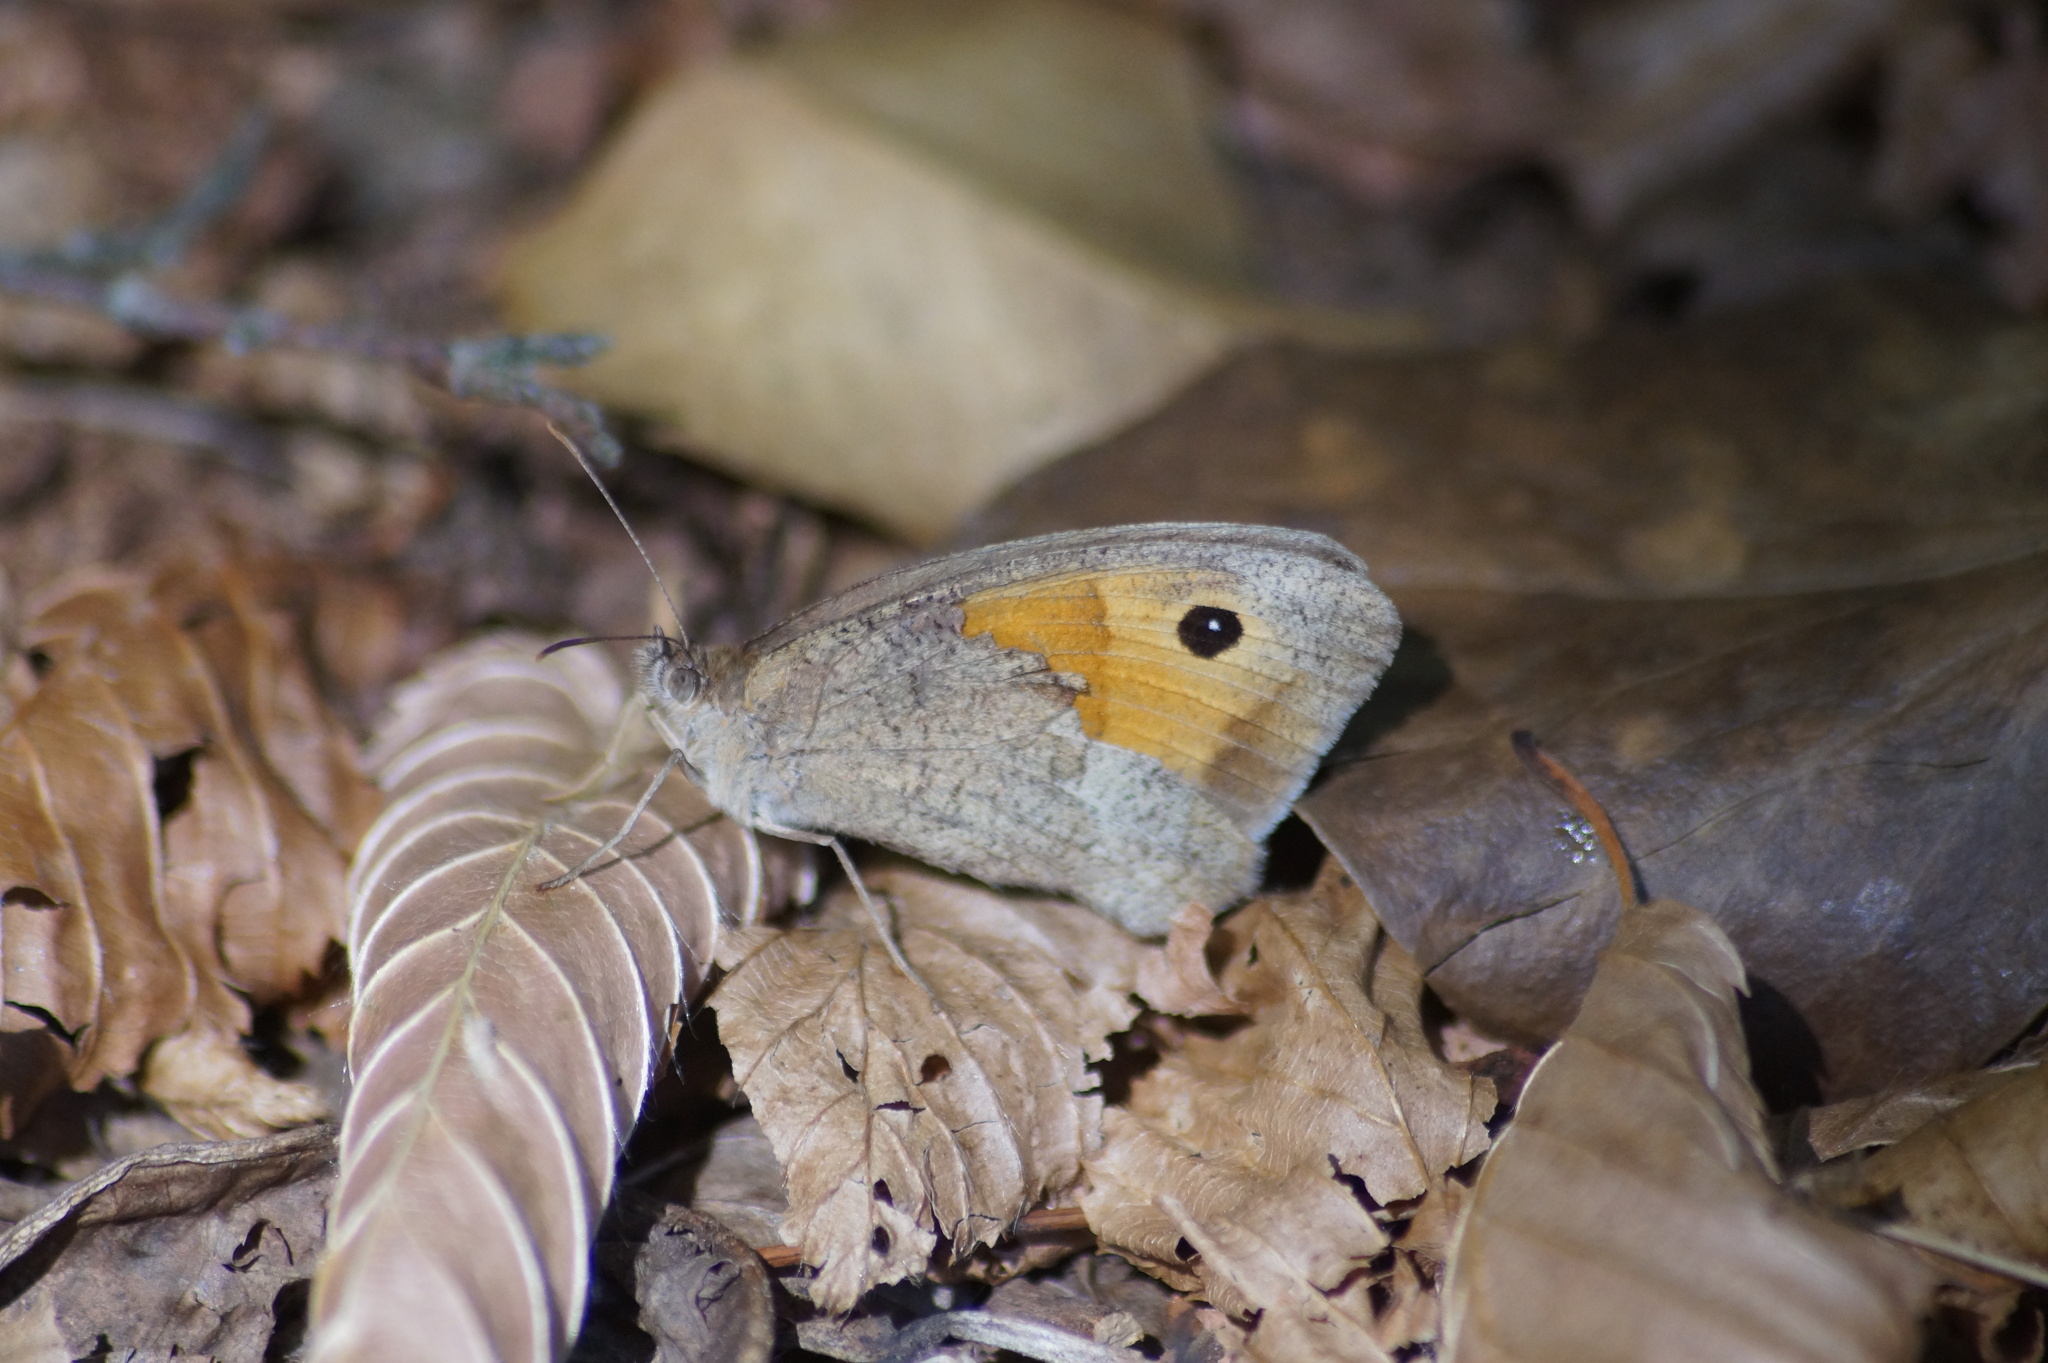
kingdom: Animalia
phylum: Arthropoda
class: Insecta
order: Lepidoptera
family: Nymphalidae
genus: Maniola
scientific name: Maniola jurtina
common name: Meadow brown
